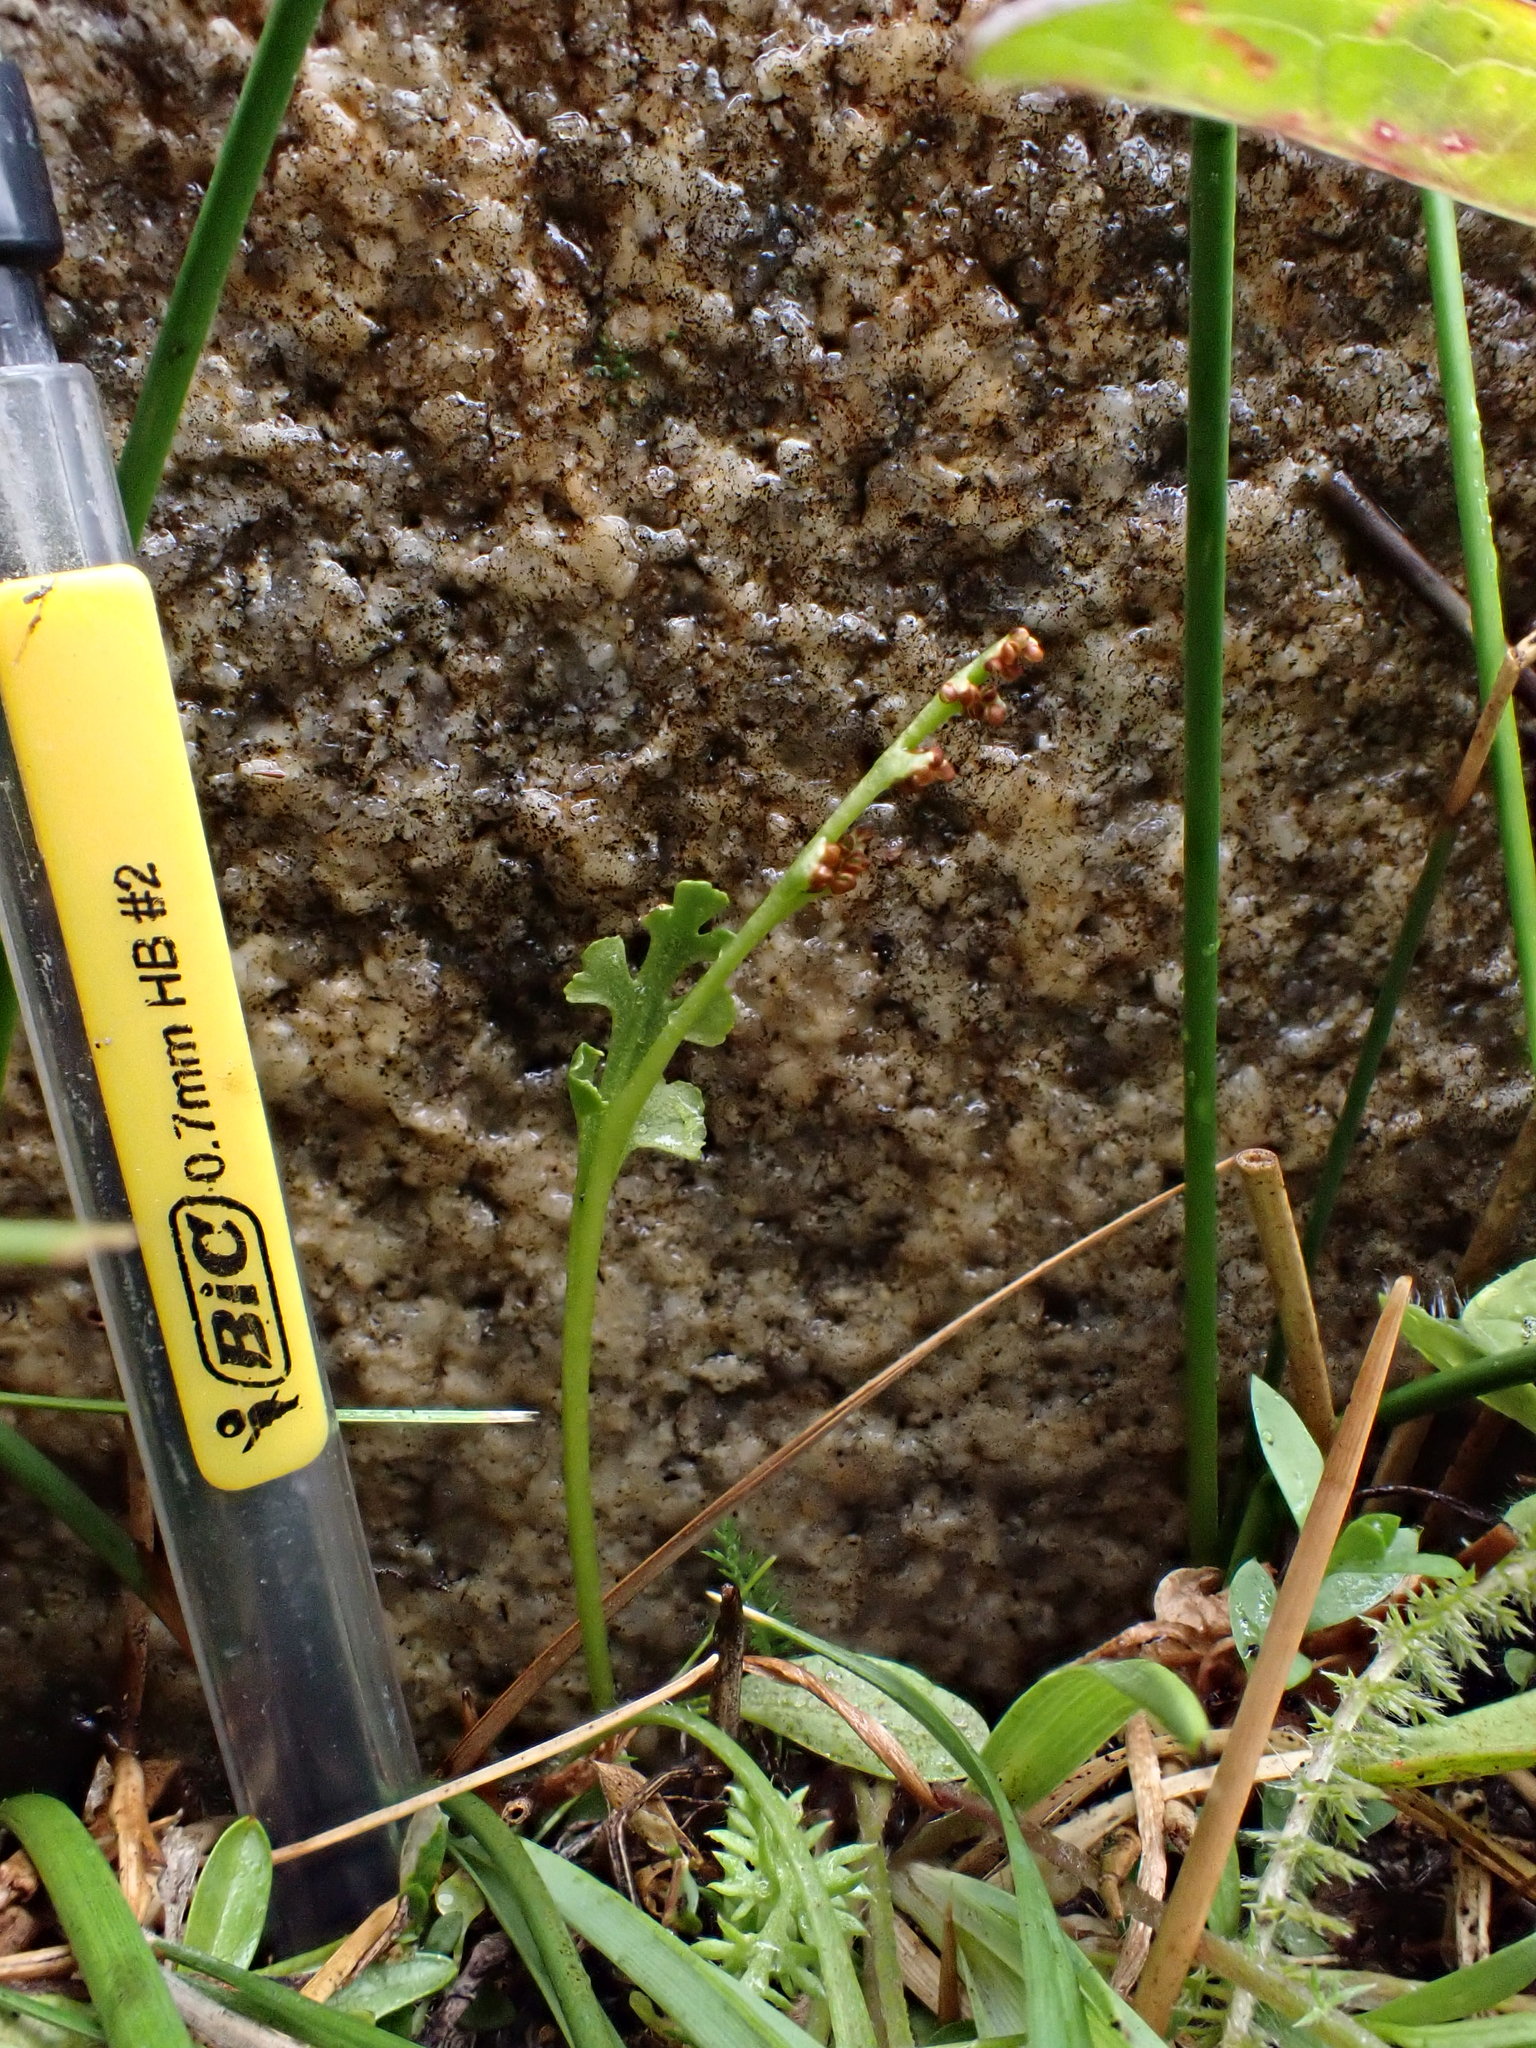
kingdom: Plantae
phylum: Tracheophyta
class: Polypodiopsida
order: Ophioglossales
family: Ophioglossaceae
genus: Botrychium
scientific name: Botrychium ascendens
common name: Ascending grapefern
